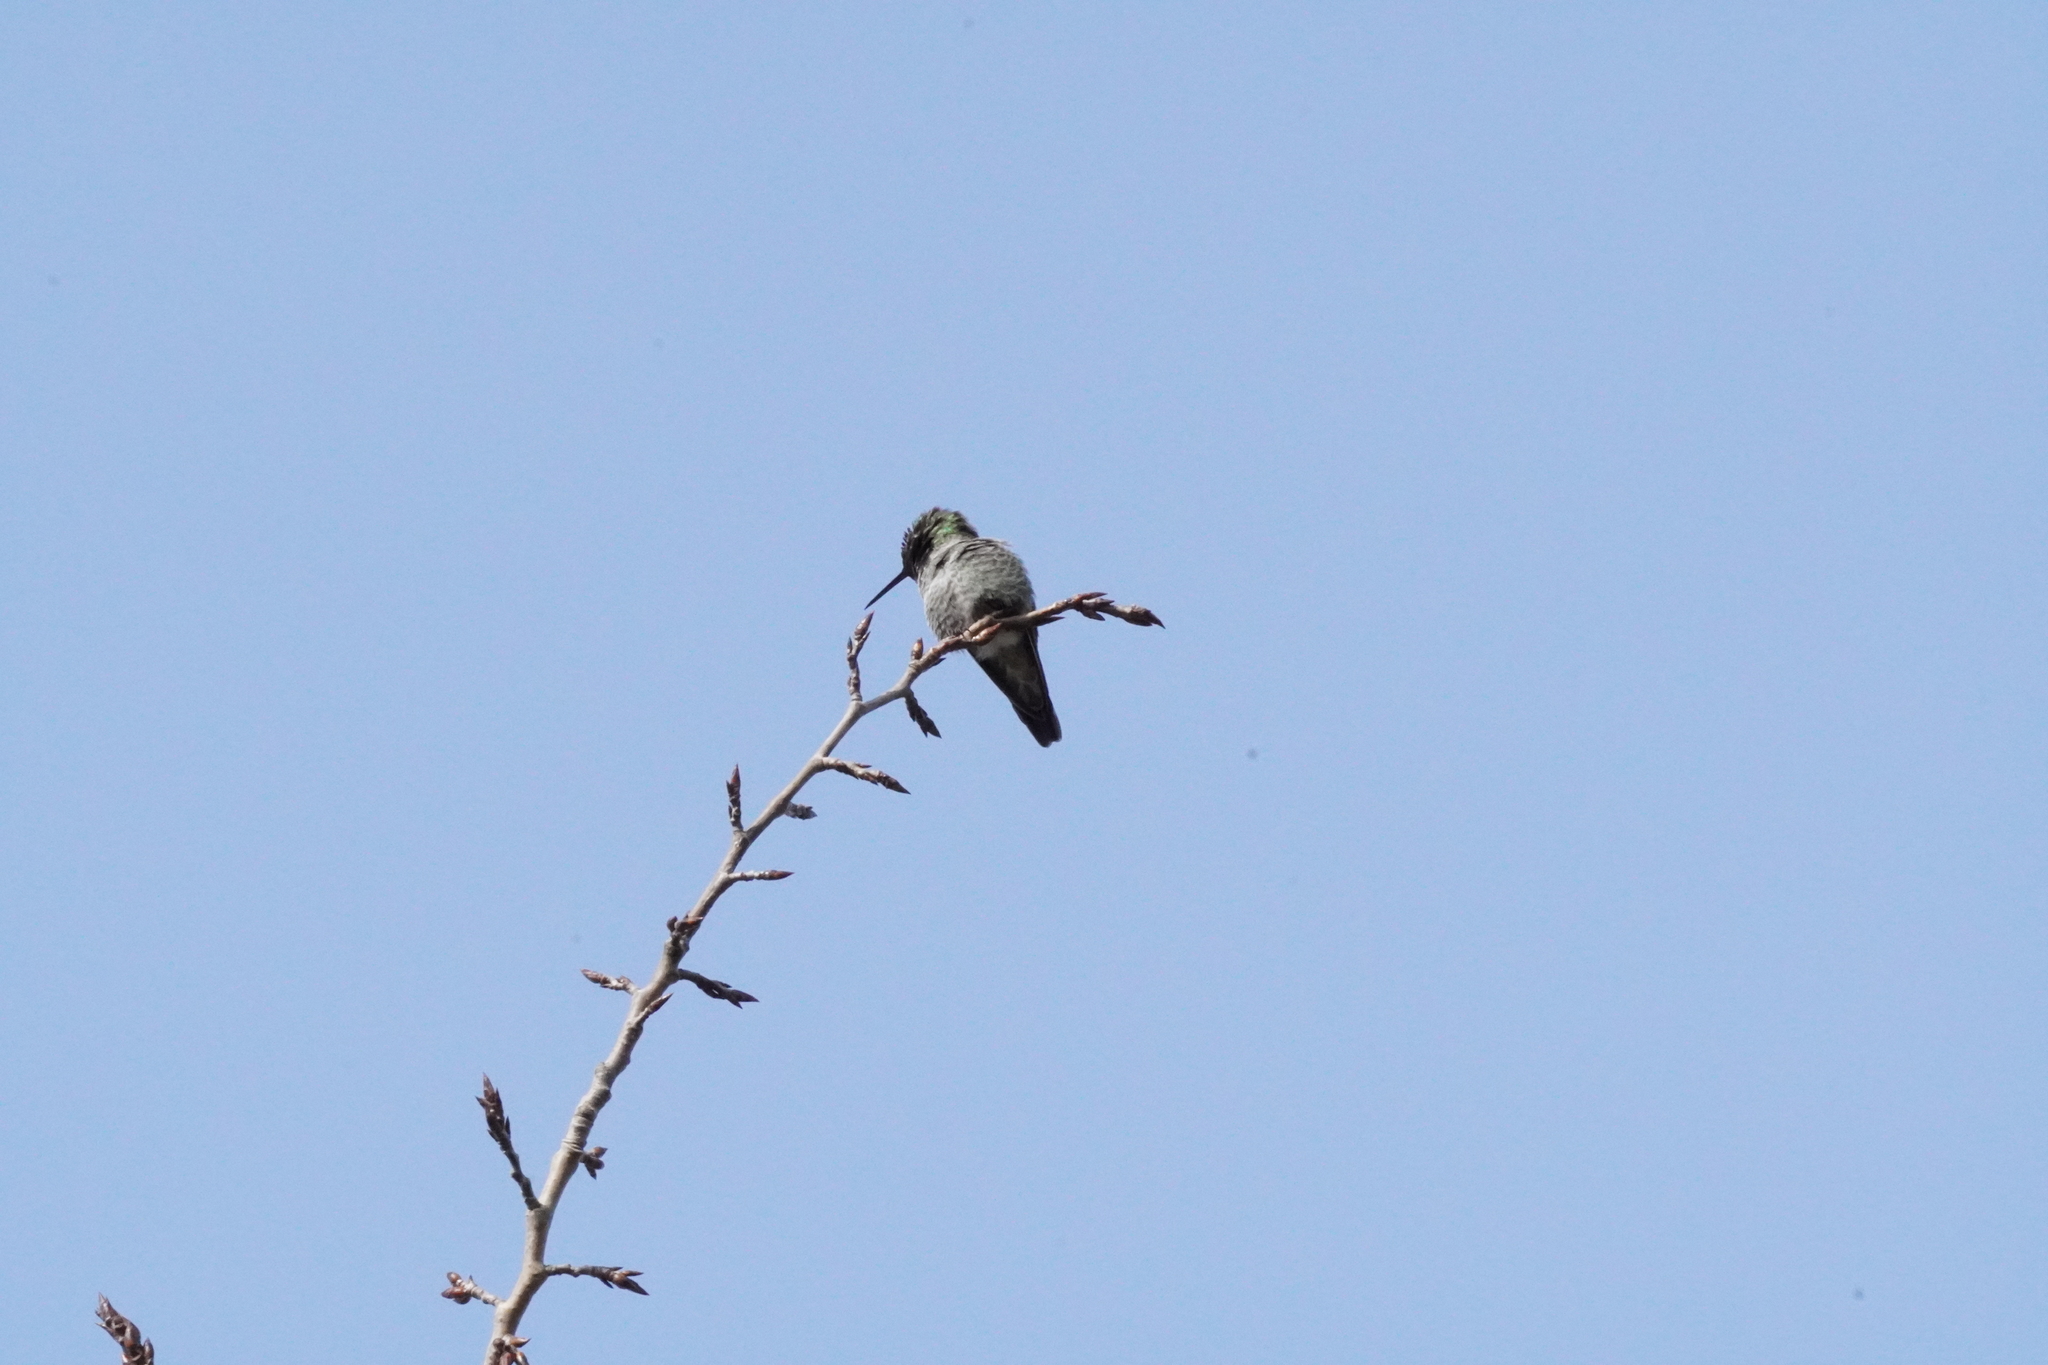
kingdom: Animalia
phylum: Chordata
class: Aves
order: Apodiformes
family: Trochilidae
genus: Calypte
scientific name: Calypte anna
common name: Anna's hummingbird
